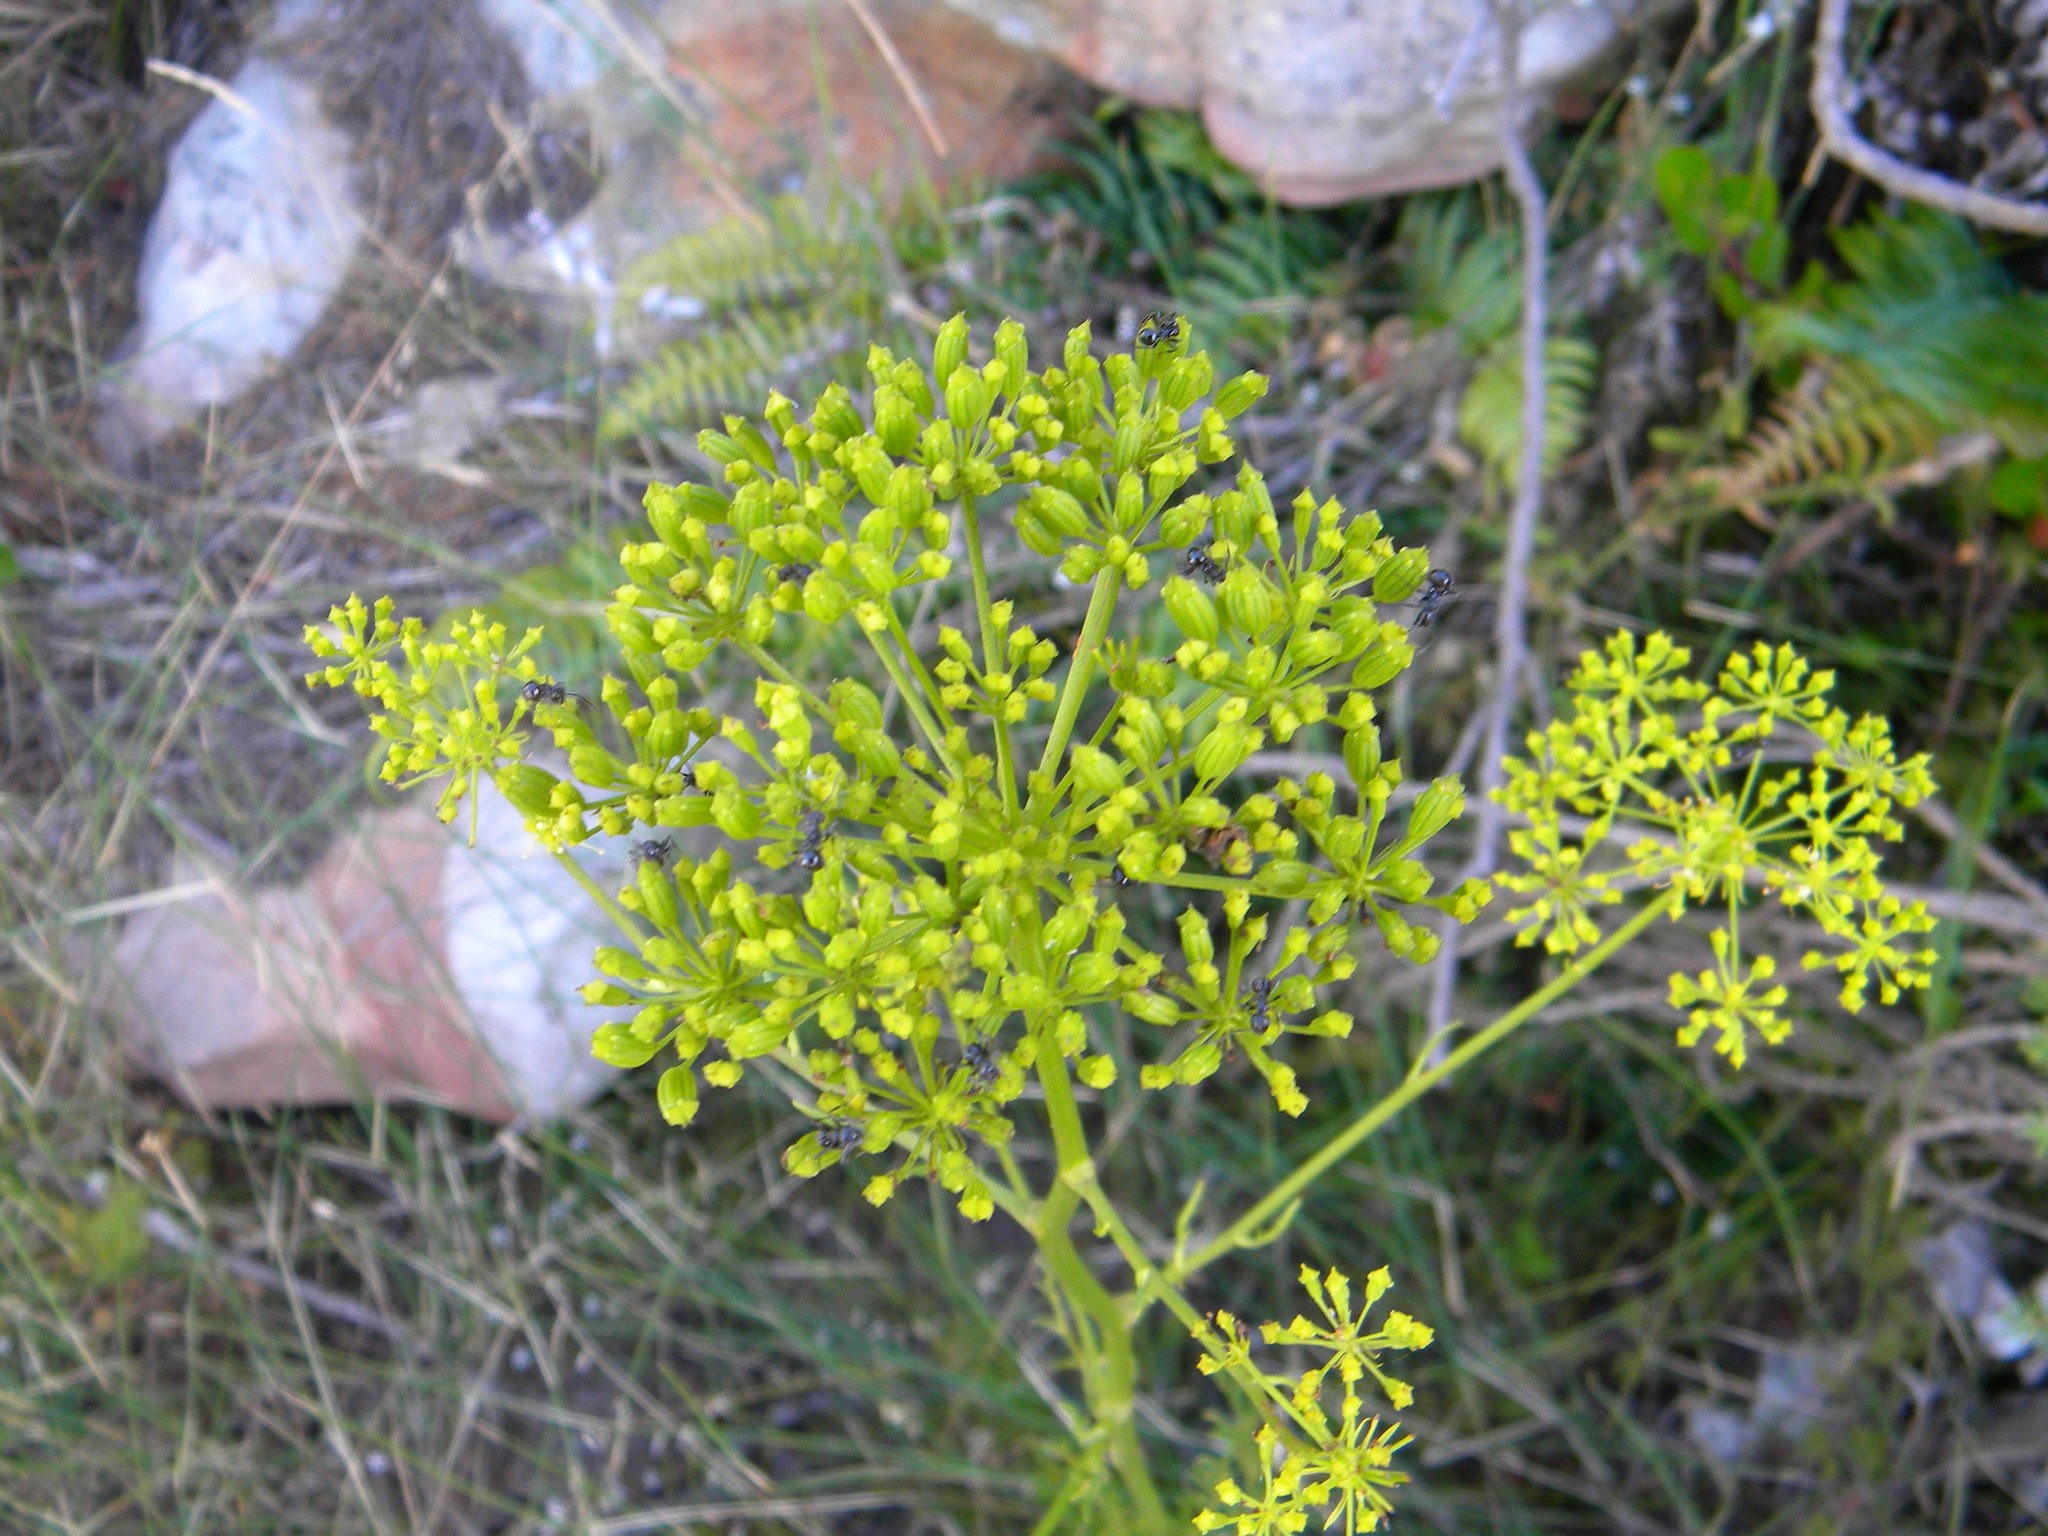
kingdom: Plantae
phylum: Tracheophyta
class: Magnoliopsida
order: Apiales
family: Apiaceae
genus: Glia
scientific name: Glia prolifera
